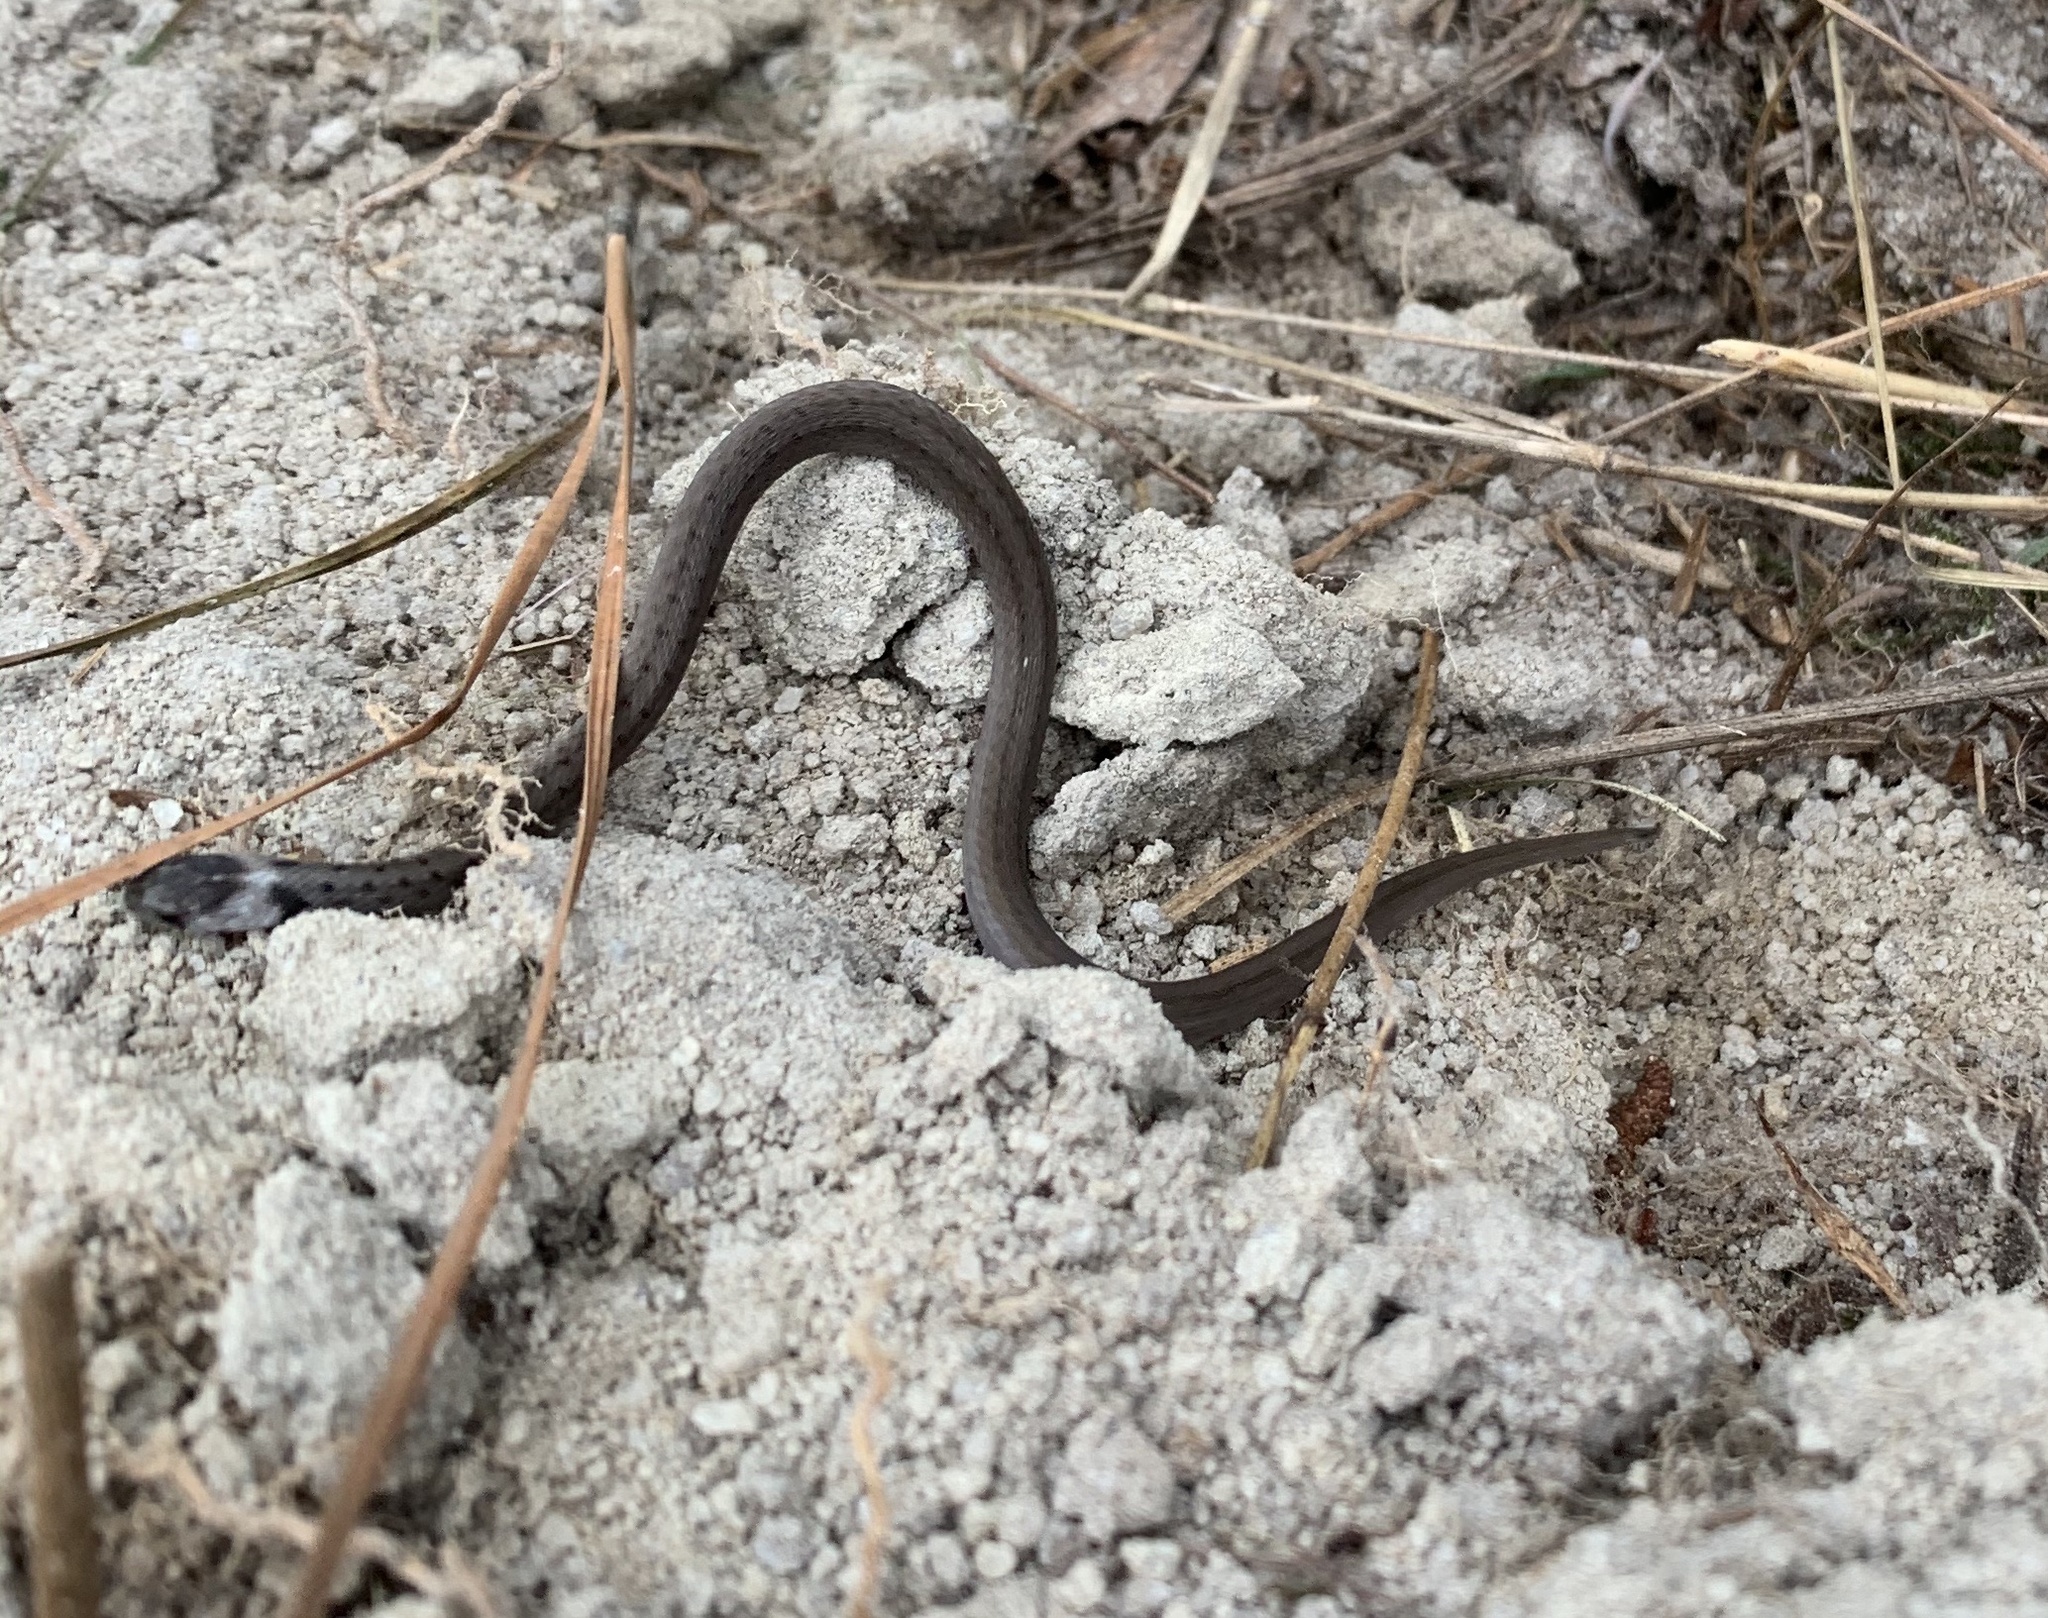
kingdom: Animalia
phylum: Chordata
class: Squamata
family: Colubridae
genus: Storeria
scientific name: Storeria dekayi
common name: (dekay’s) brown snake
